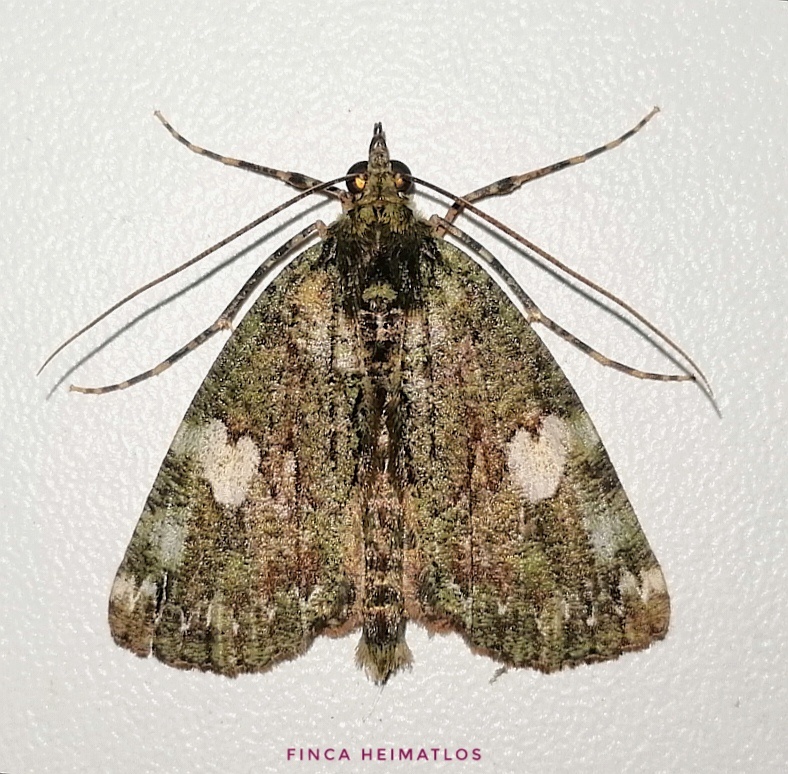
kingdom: Animalia
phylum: Arthropoda
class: Insecta
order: Lepidoptera
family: Geometridae
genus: Ischnopteris
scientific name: Ischnopteris albiguttata
